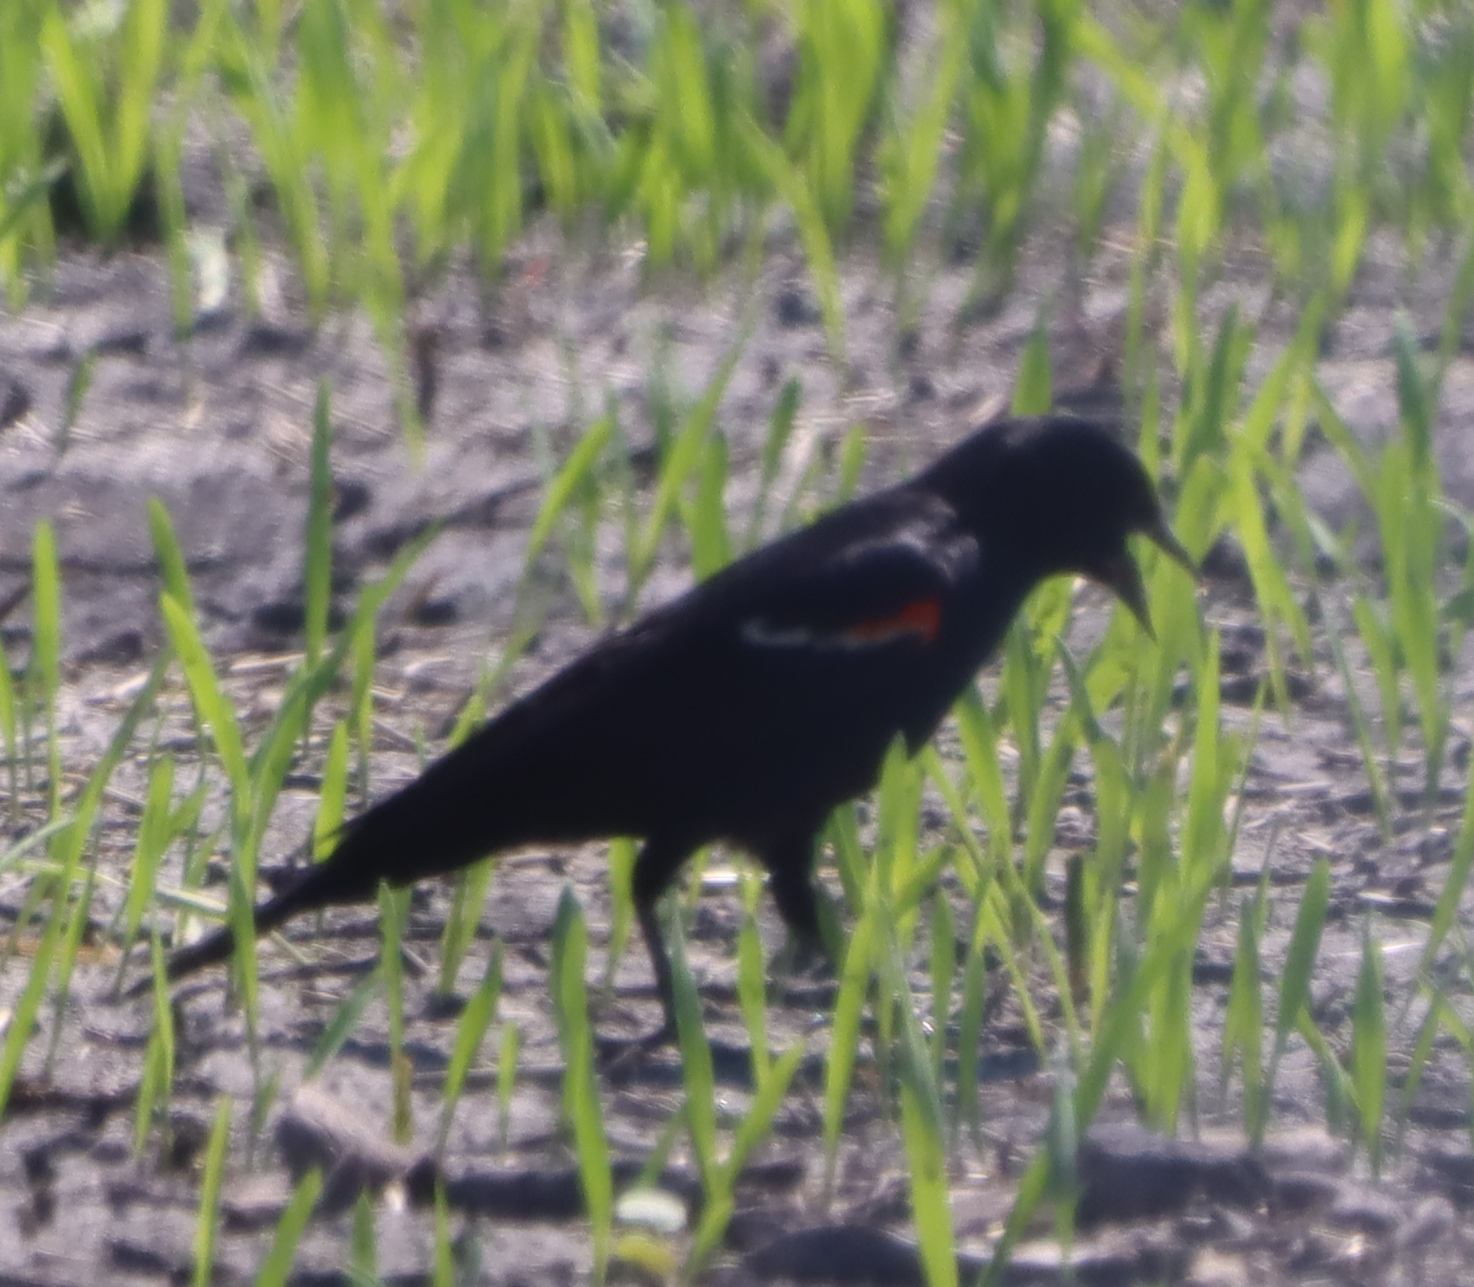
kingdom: Animalia
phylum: Chordata
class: Aves
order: Passeriformes
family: Icteridae
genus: Agelaius
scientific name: Agelaius phoeniceus
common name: Red-winged blackbird
